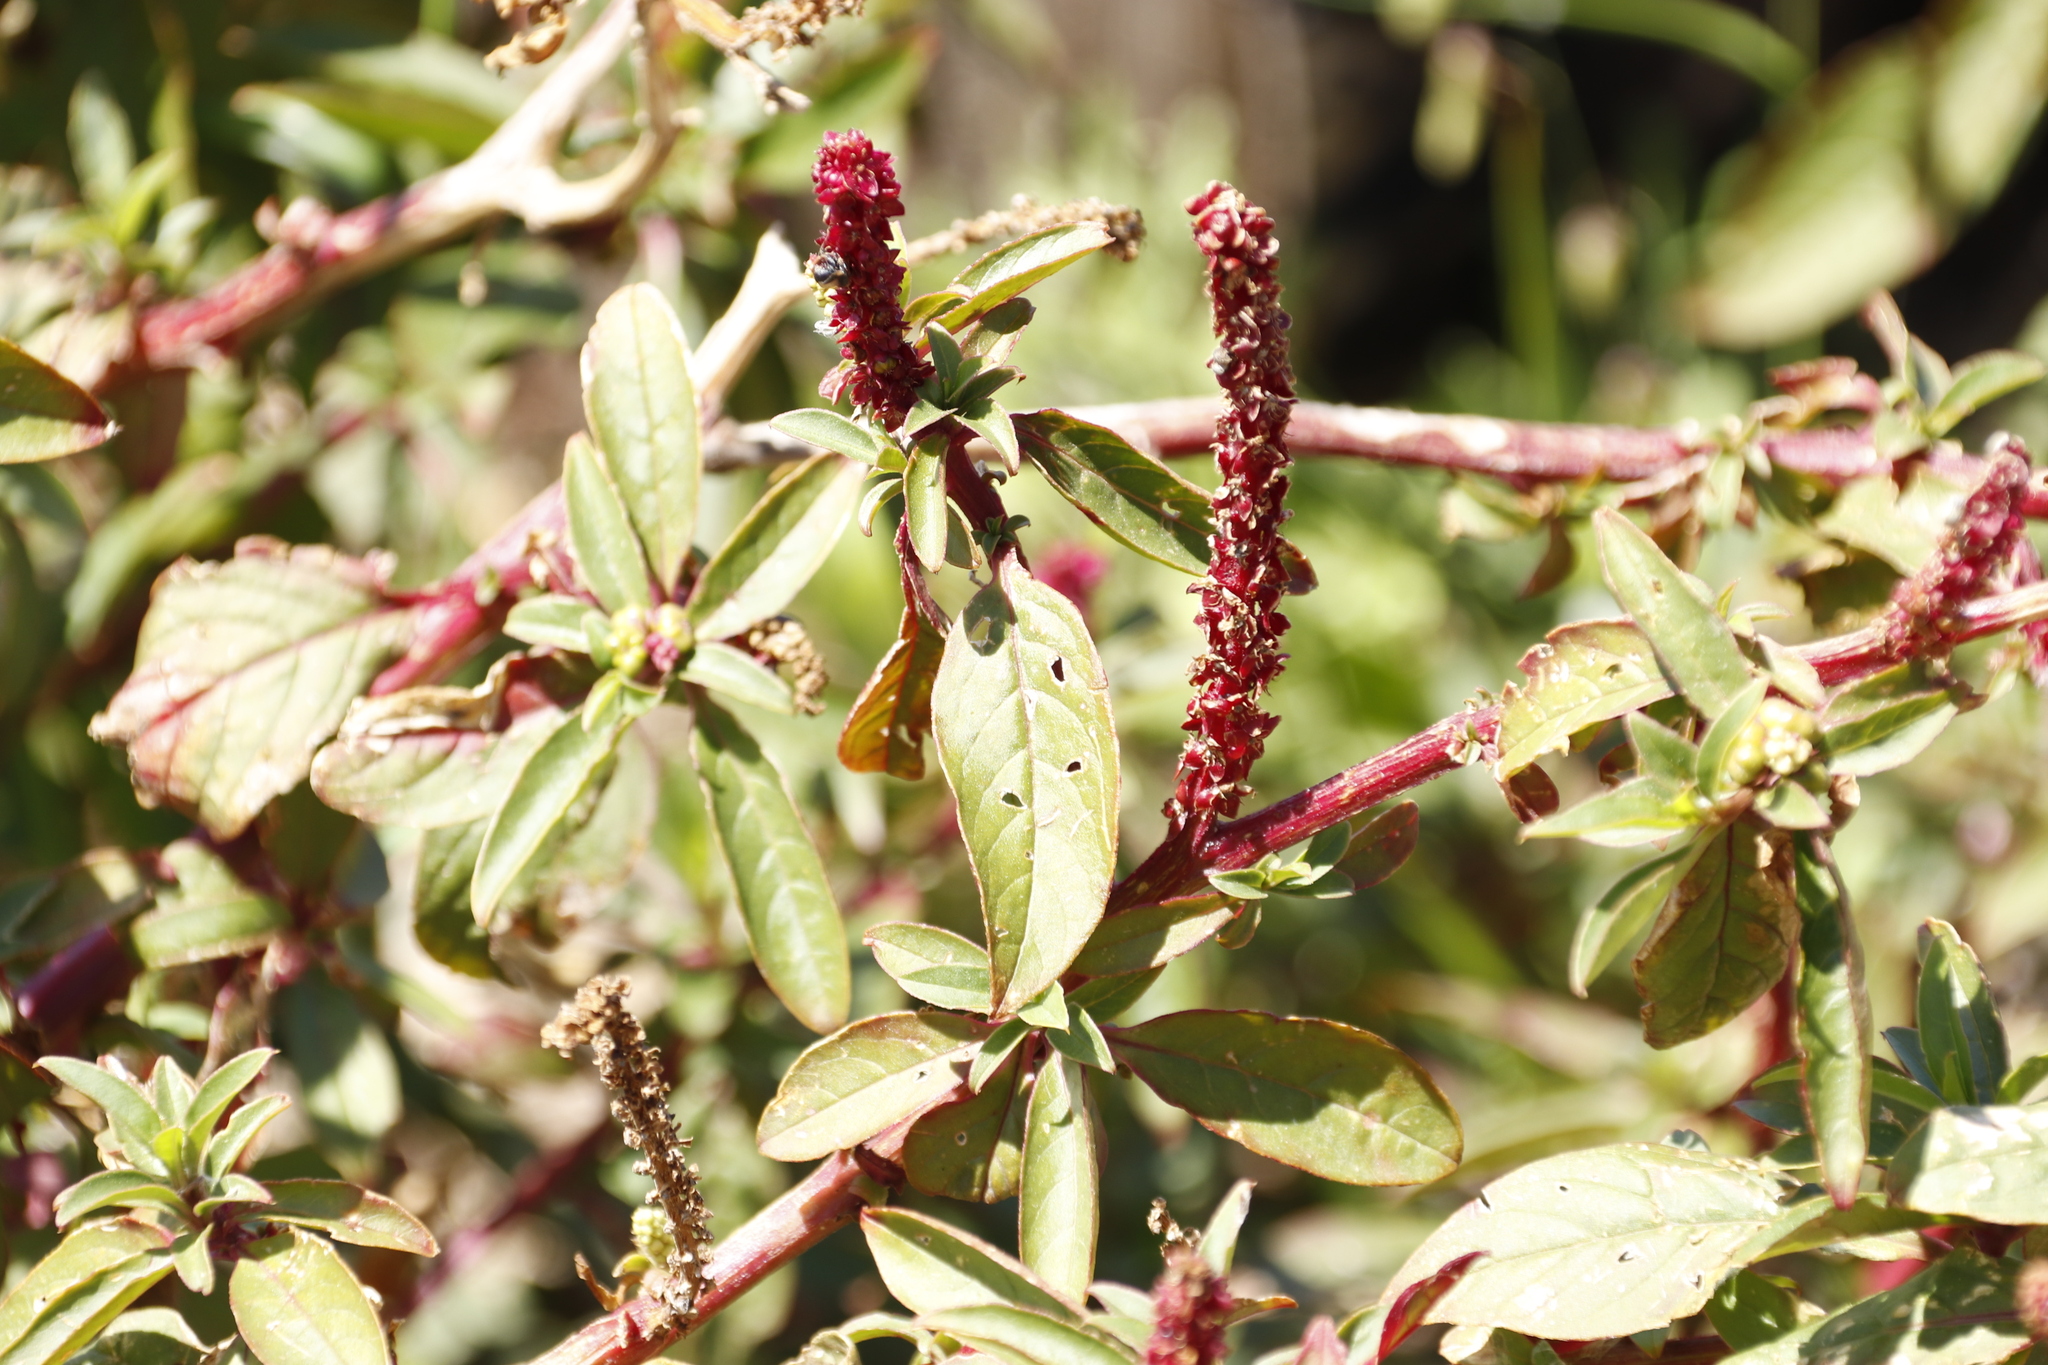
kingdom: Plantae
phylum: Tracheophyta
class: Magnoliopsida
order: Caryophyllales
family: Phytolaccaceae
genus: Phytolacca
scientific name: Phytolacca icosandra
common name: Button pokeweed
